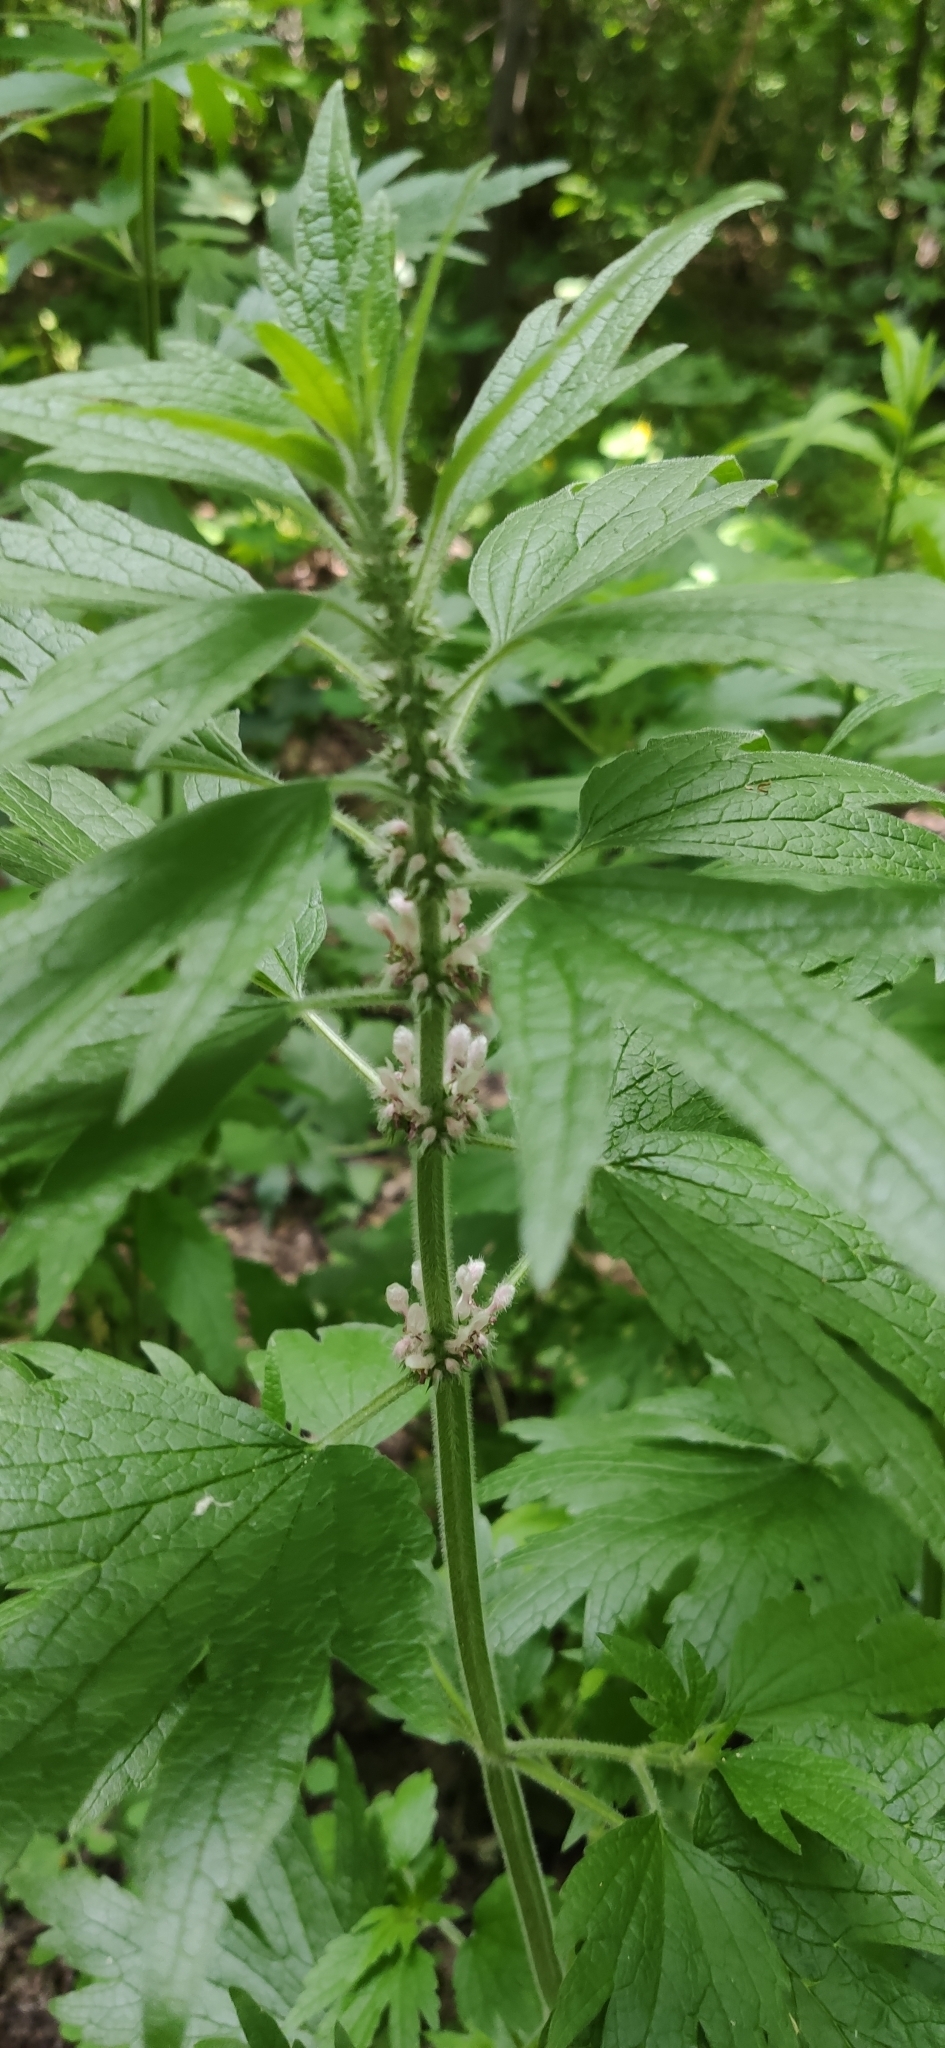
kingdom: Plantae
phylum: Tracheophyta
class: Magnoliopsida
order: Lamiales
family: Lamiaceae
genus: Leonurus
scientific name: Leonurus quinquelobatus
